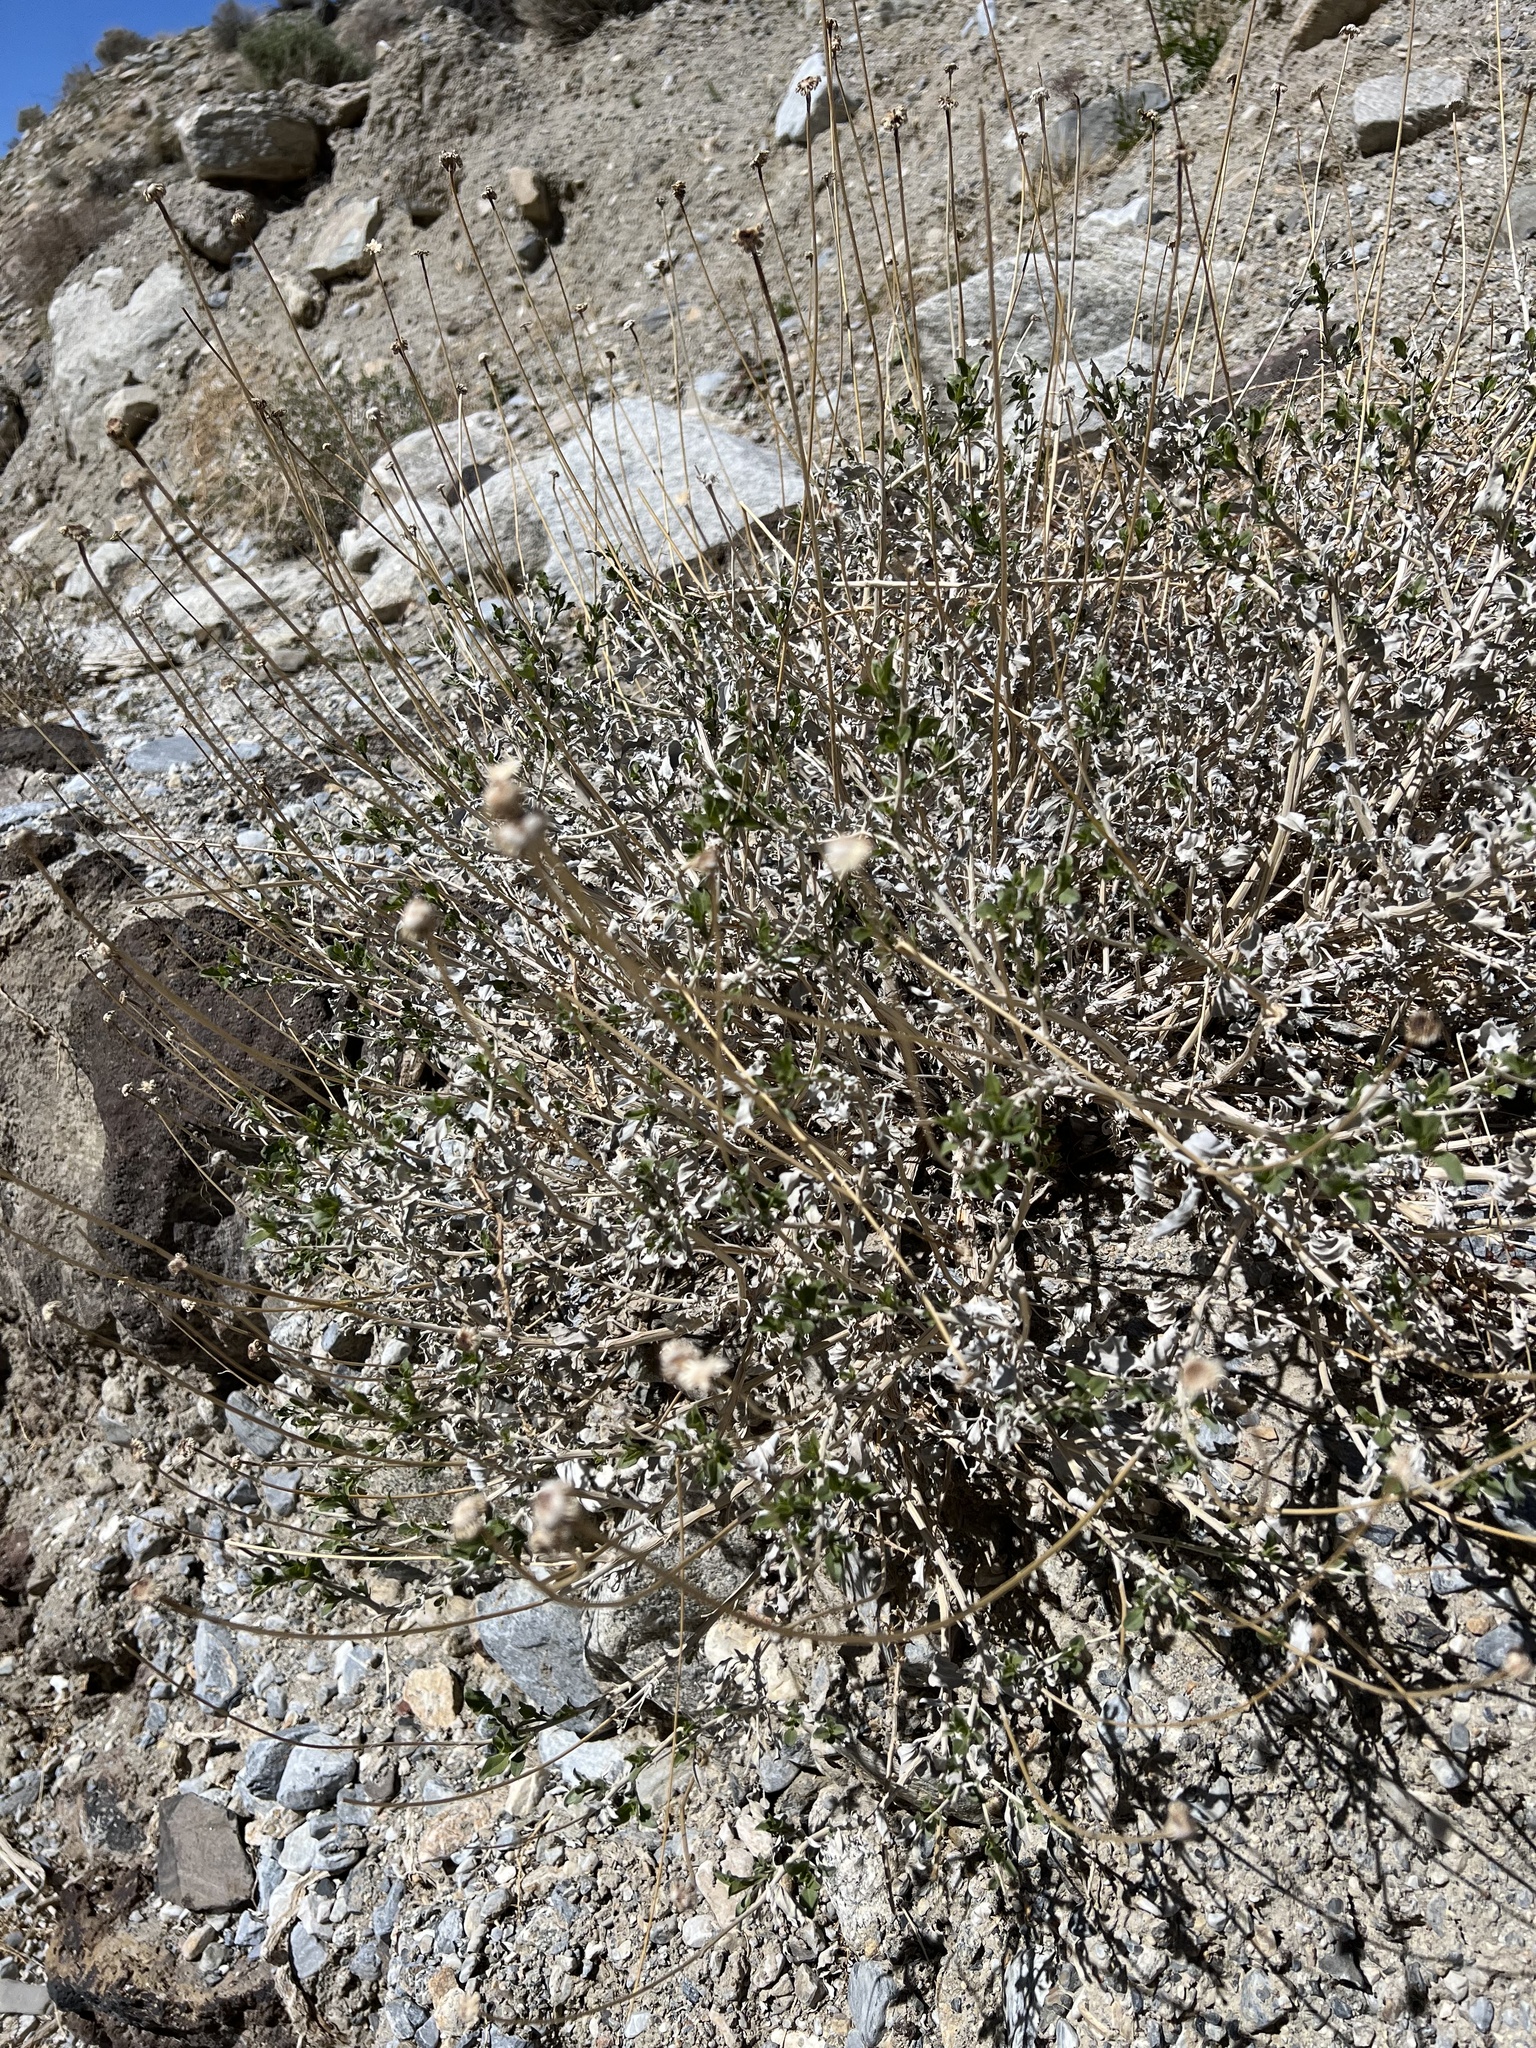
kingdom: Plantae
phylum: Tracheophyta
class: Magnoliopsida
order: Asterales
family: Asteraceae
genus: Encelia
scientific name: Encelia actoni
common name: Acton encelia
